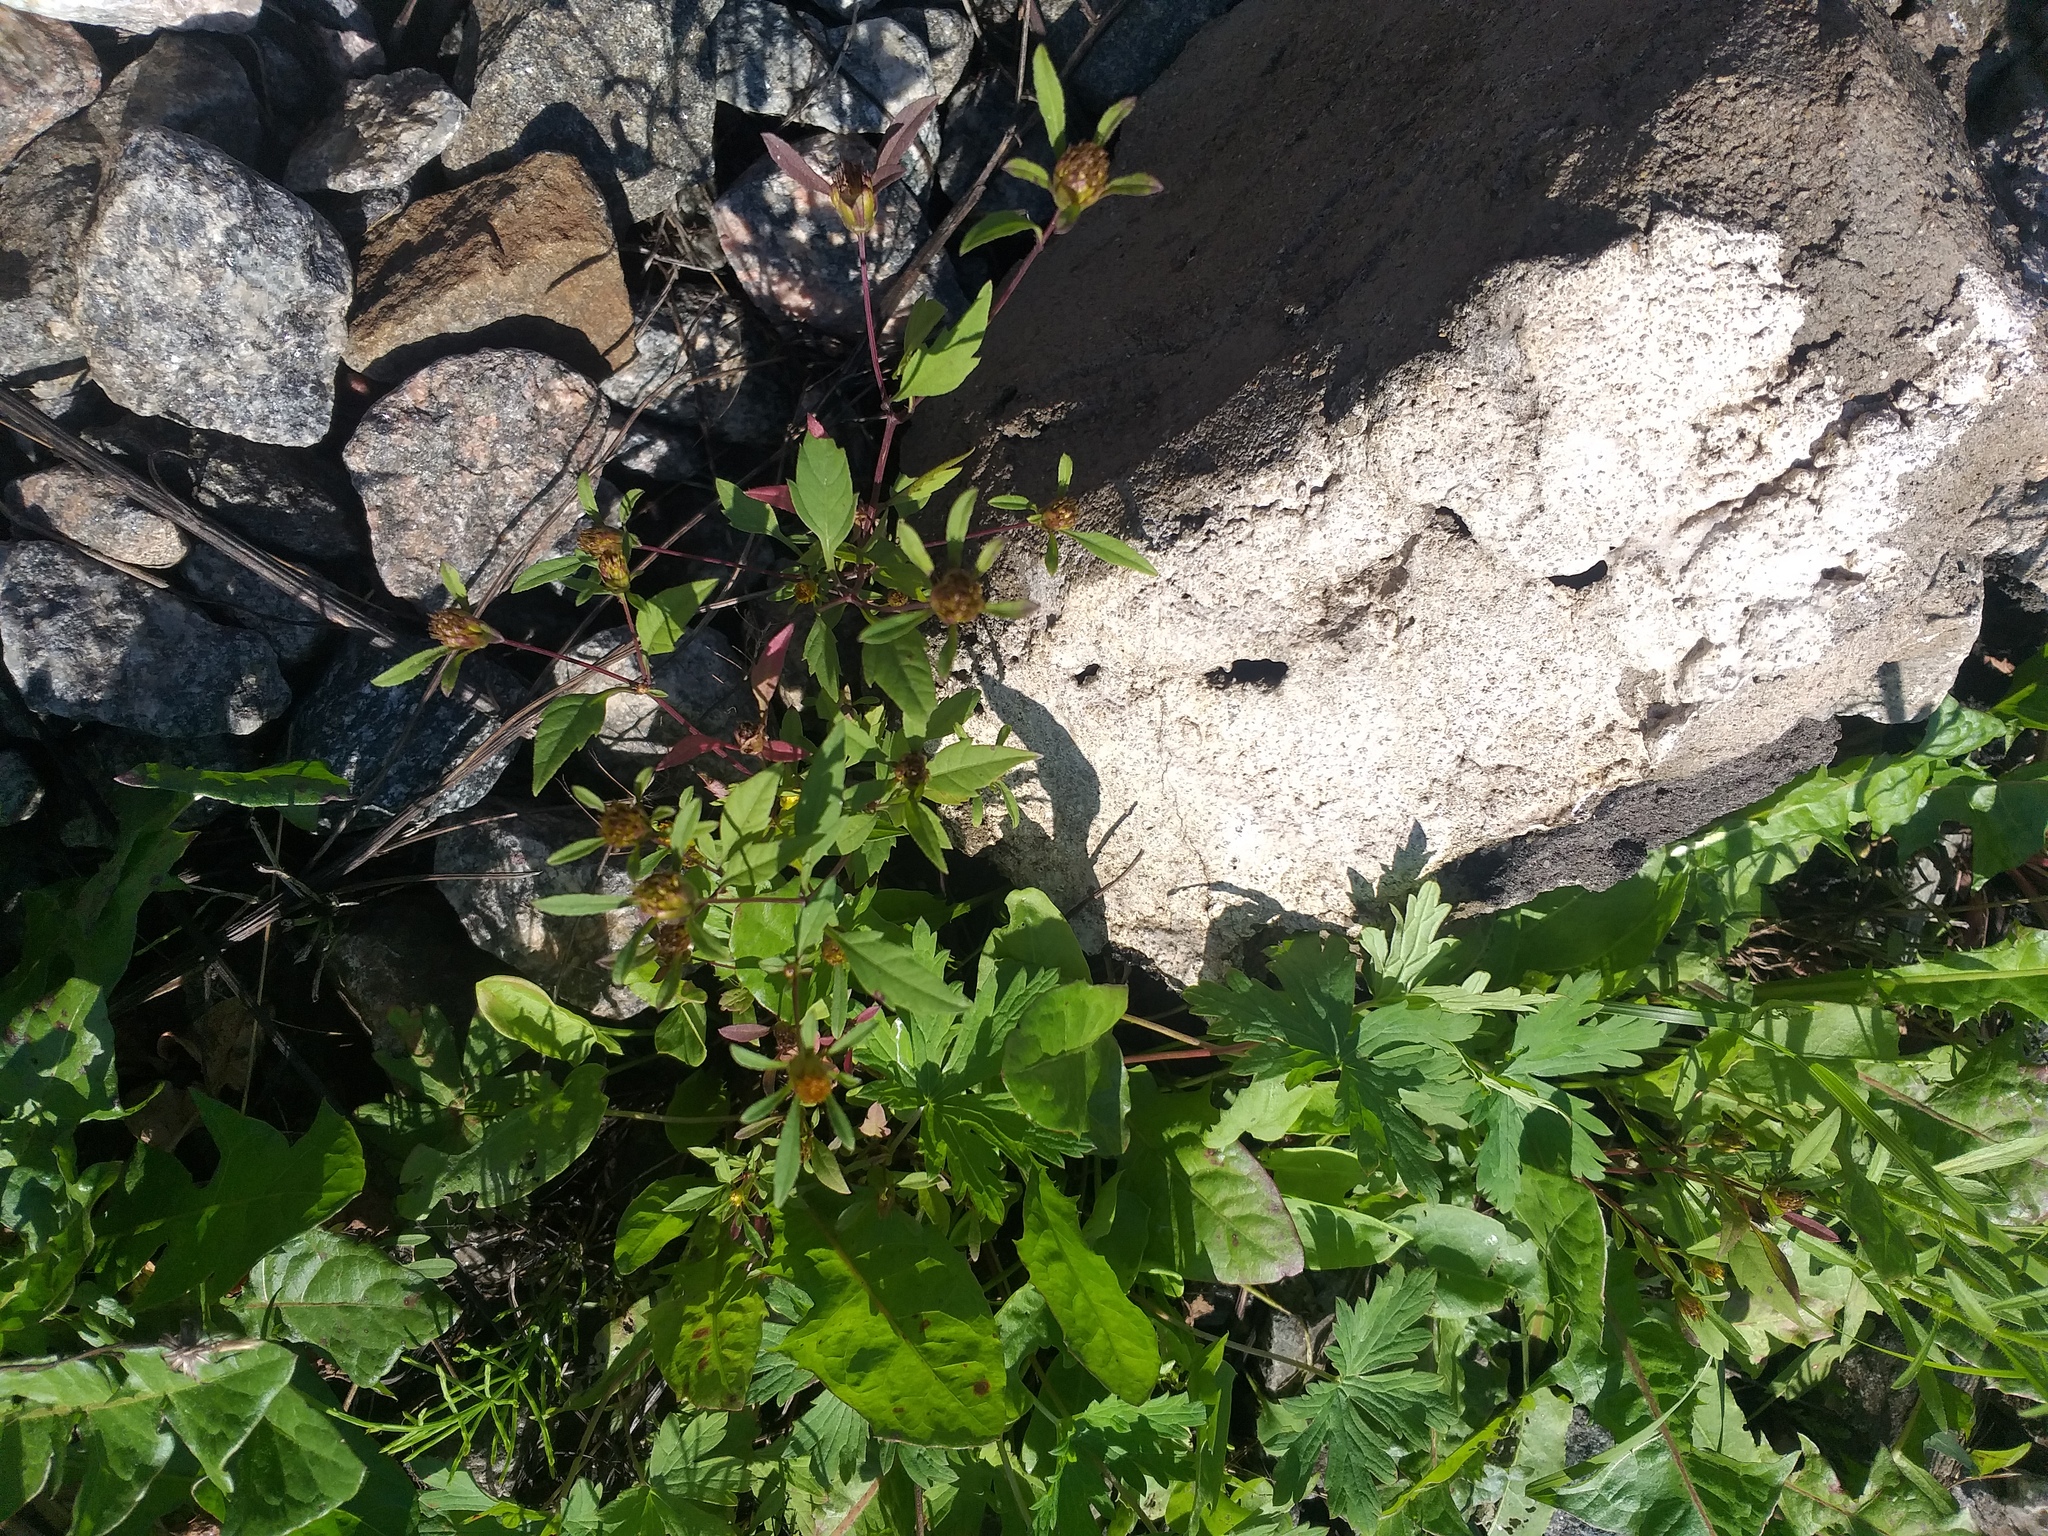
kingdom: Plantae
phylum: Tracheophyta
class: Magnoliopsida
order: Asterales
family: Asteraceae
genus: Bidens
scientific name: Bidens frondosa
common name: Beggarticks
